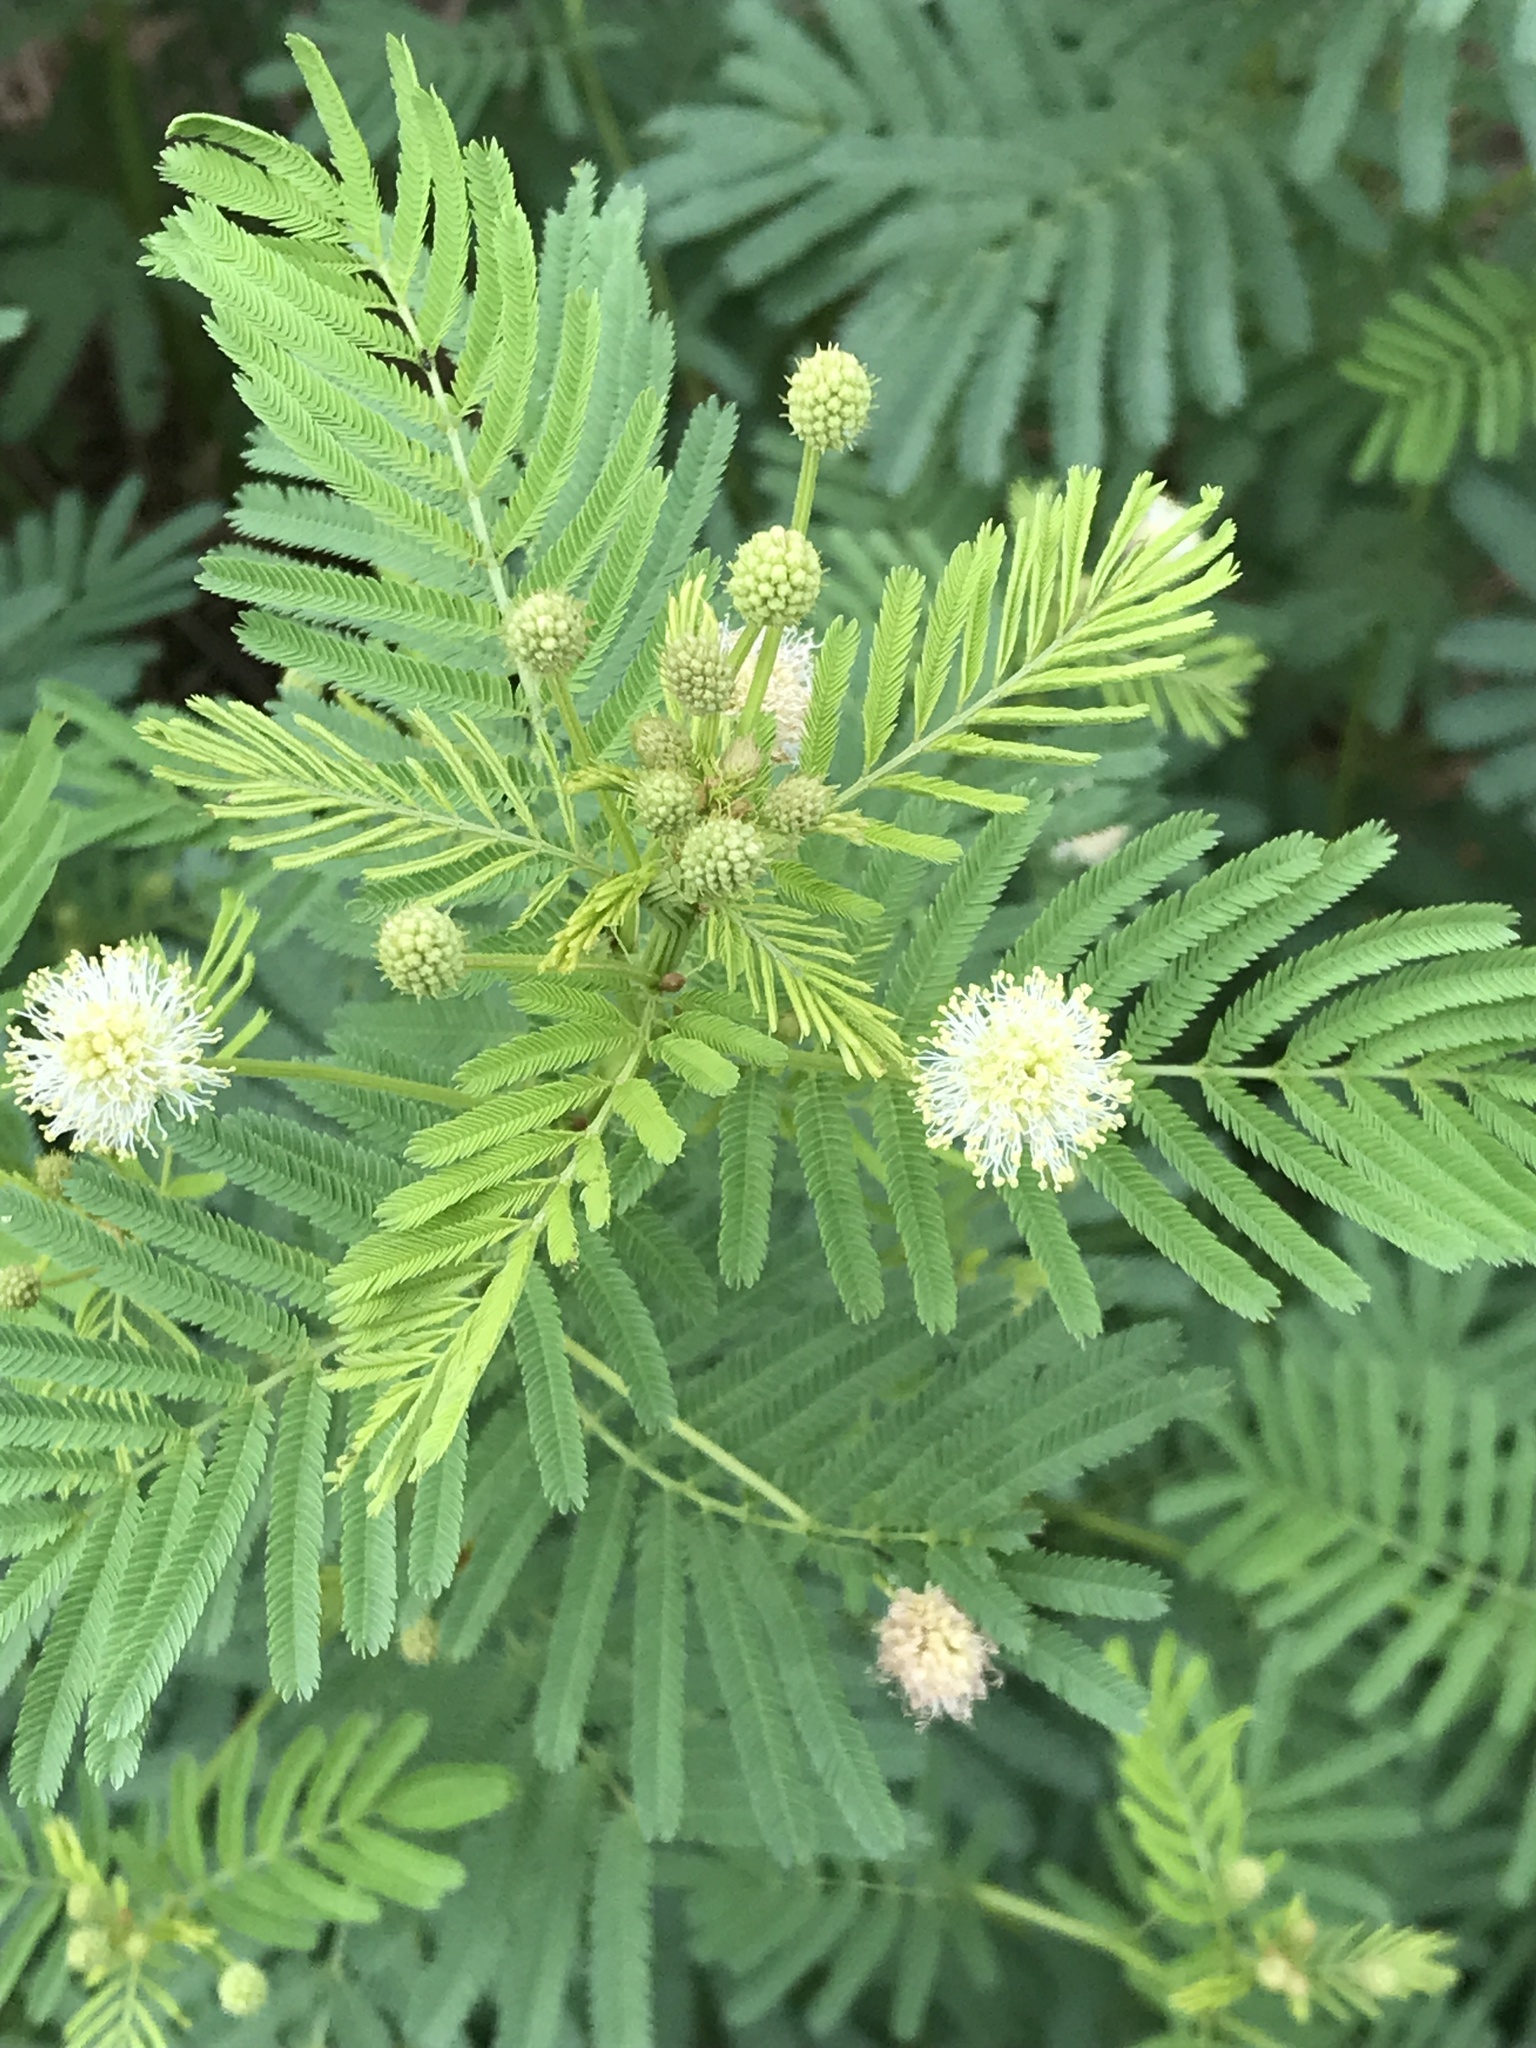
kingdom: Plantae
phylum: Tracheophyta
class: Magnoliopsida
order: Fabales
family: Fabaceae
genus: Desmanthus
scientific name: Desmanthus illinoensis
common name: Illinois bundle-flower
